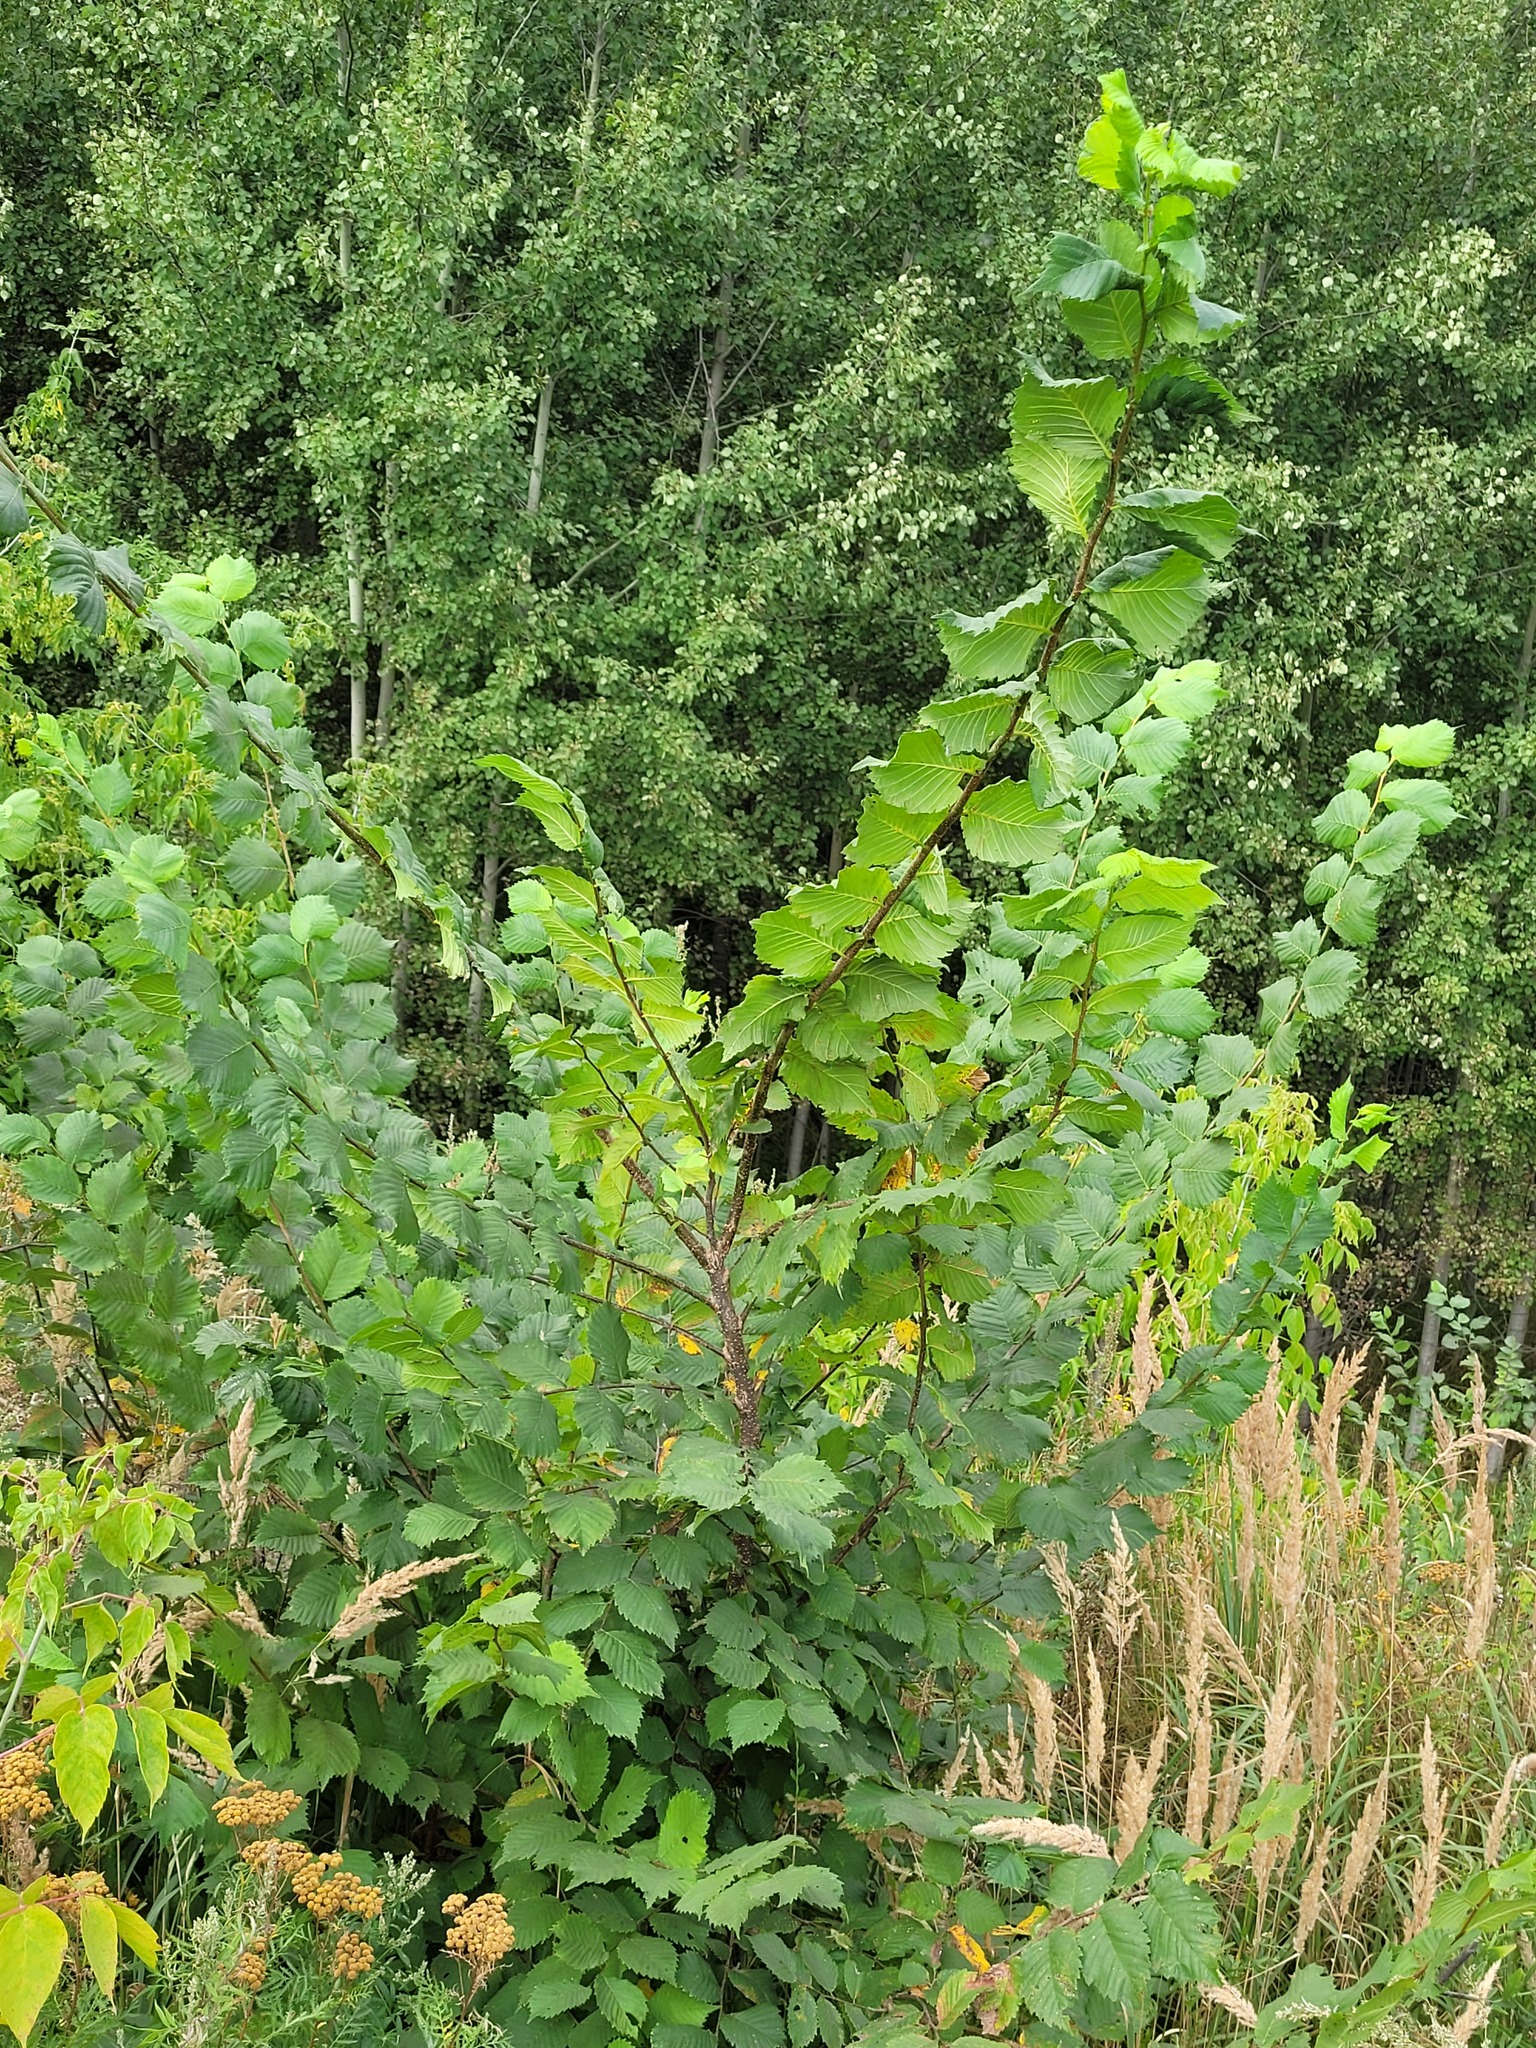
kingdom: Plantae
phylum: Tracheophyta
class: Magnoliopsida
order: Rosales
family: Ulmaceae
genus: Ulmus
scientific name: Ulmus laevis
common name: European white-elm
